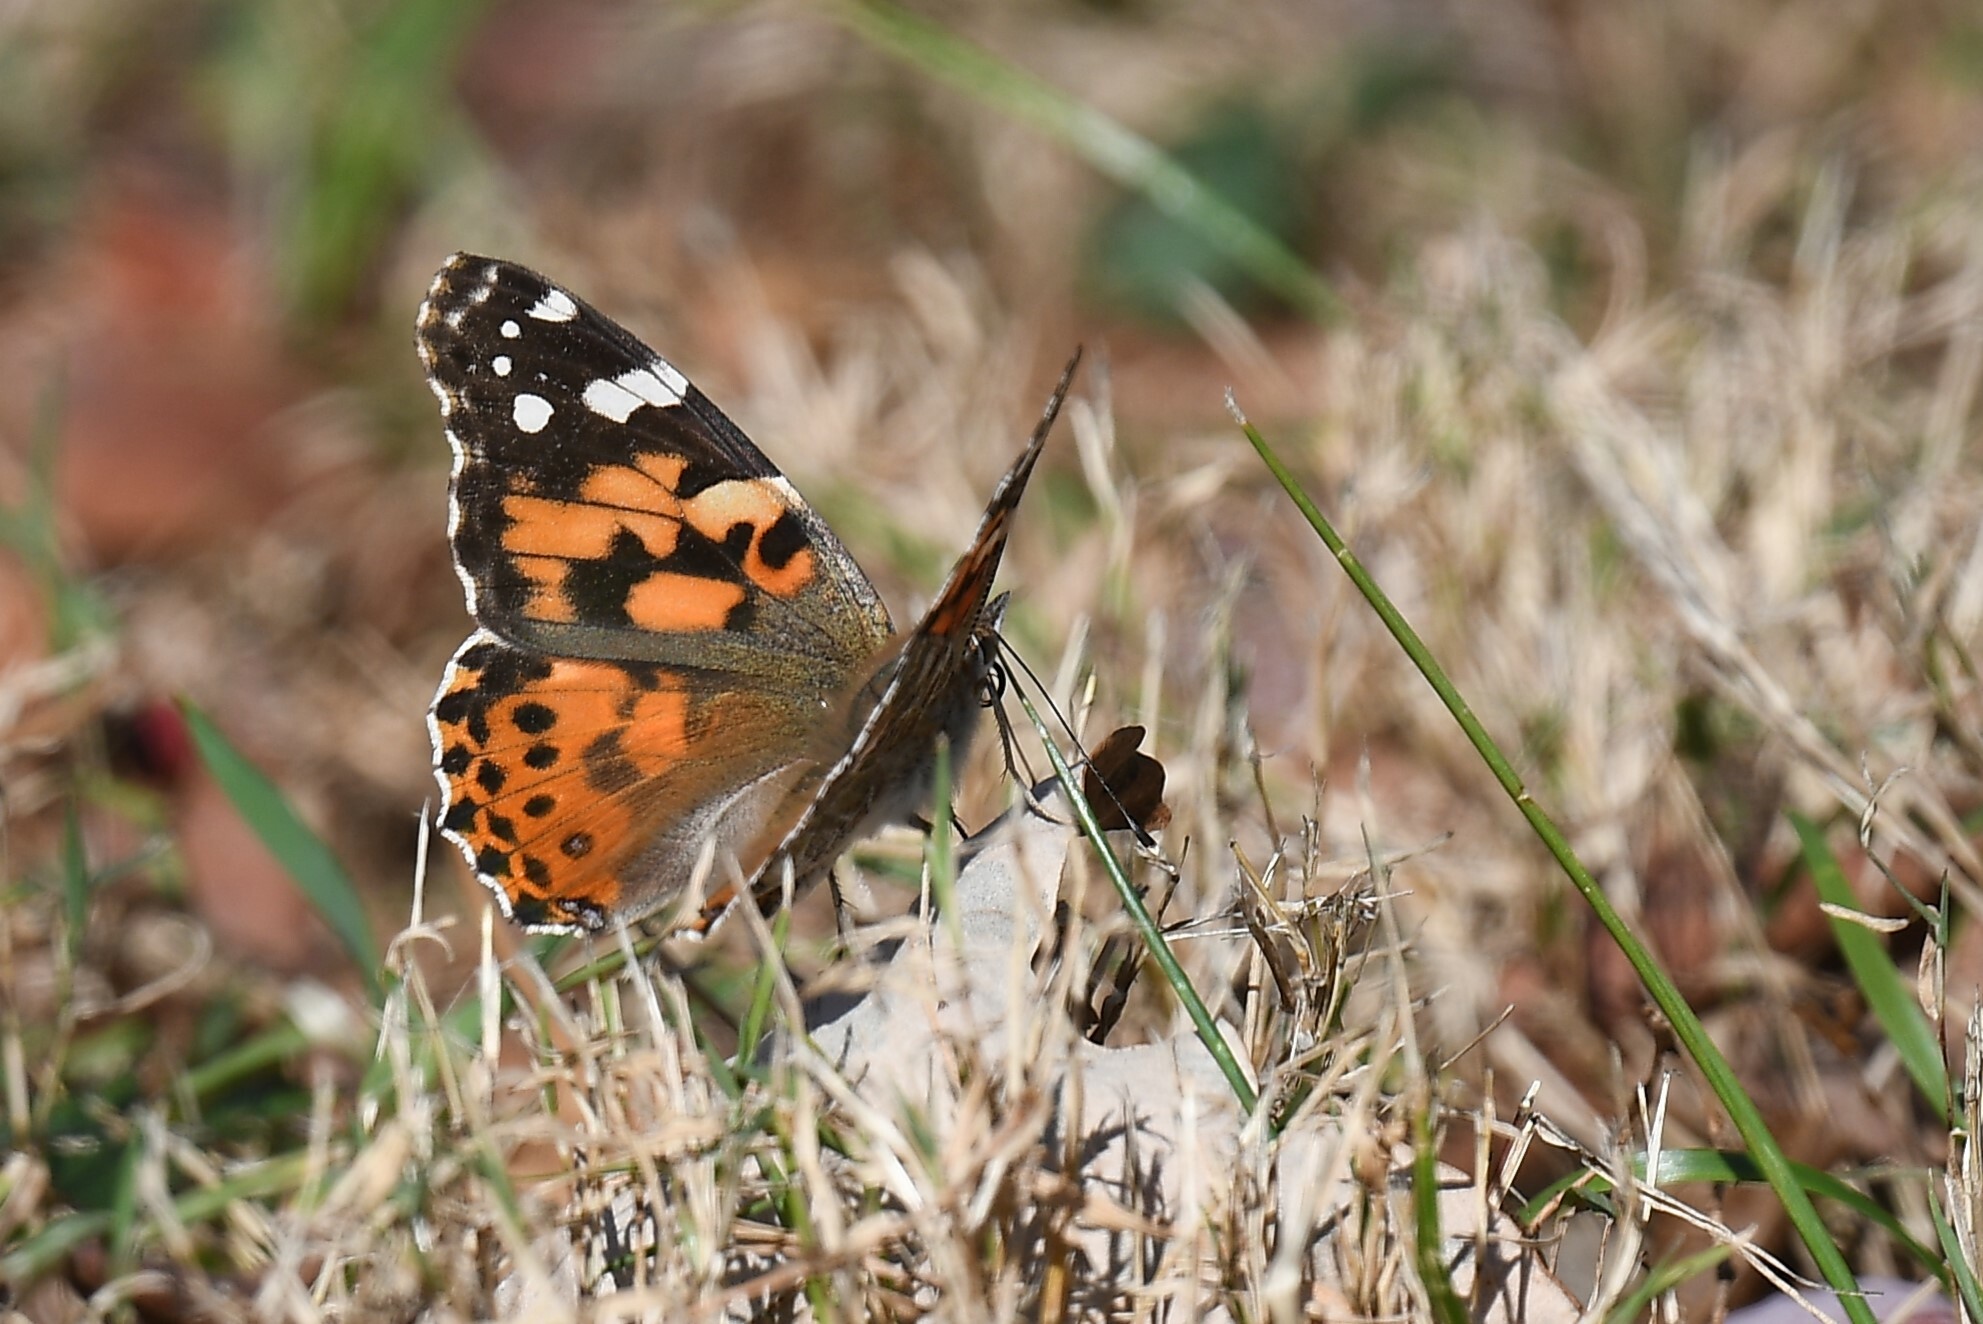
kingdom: Animalia
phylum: Arthropoda
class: Insecta
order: Lepidoptera
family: Nymphalidae
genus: Vanessa
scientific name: Vanessa cardui
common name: Painted lady
